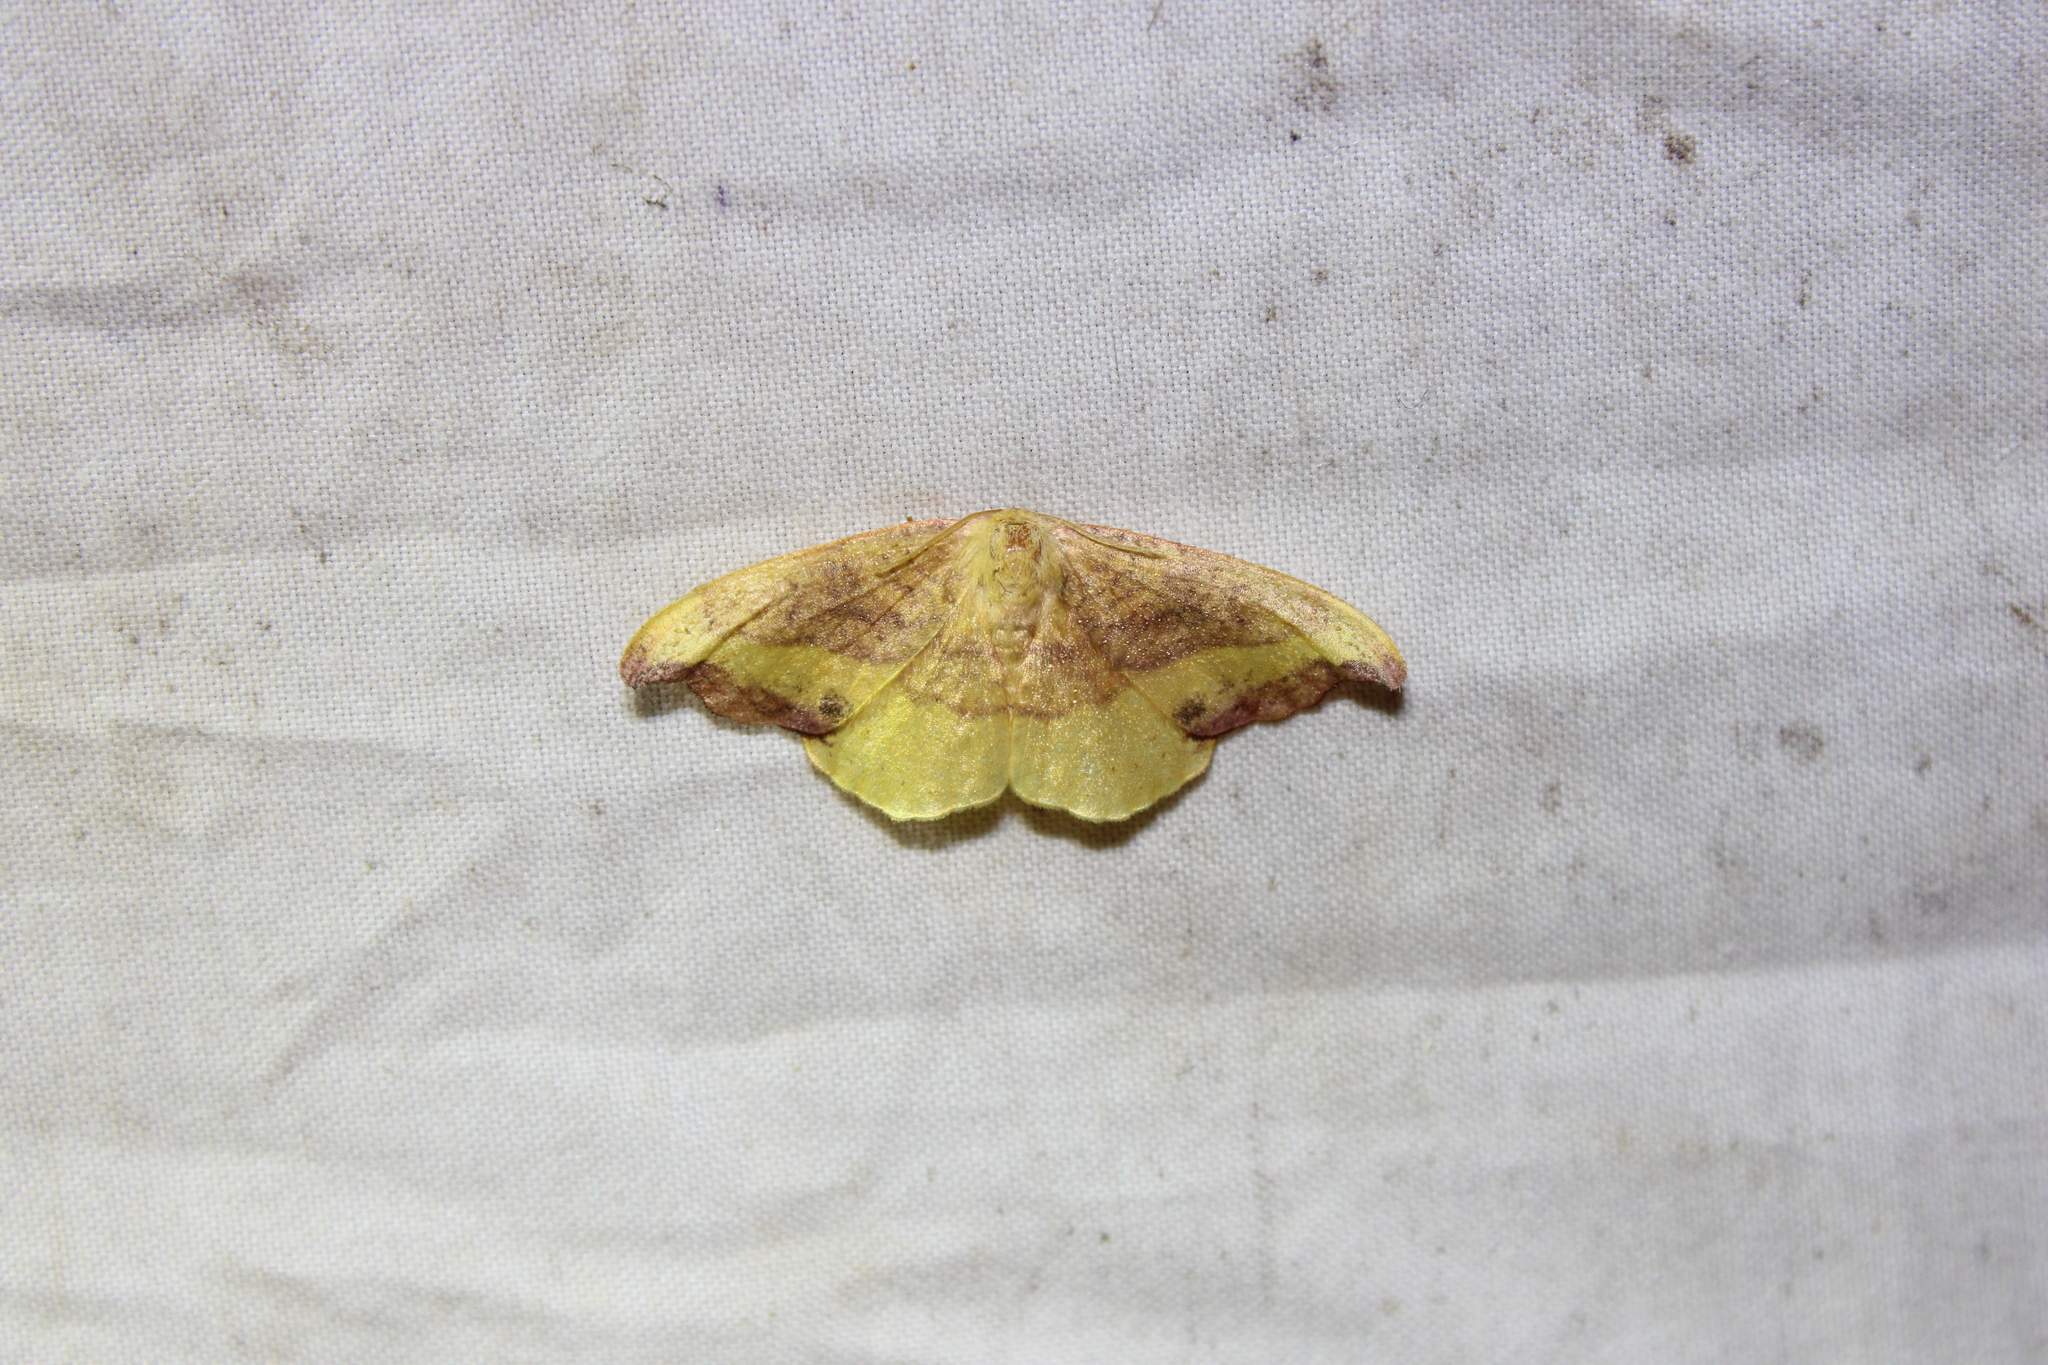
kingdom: Animalia
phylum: Arthropoda
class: Insecta
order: Lepidoptera
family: Drepanidae
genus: Oreta
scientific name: Oreta rosea
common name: Rose hooktip
